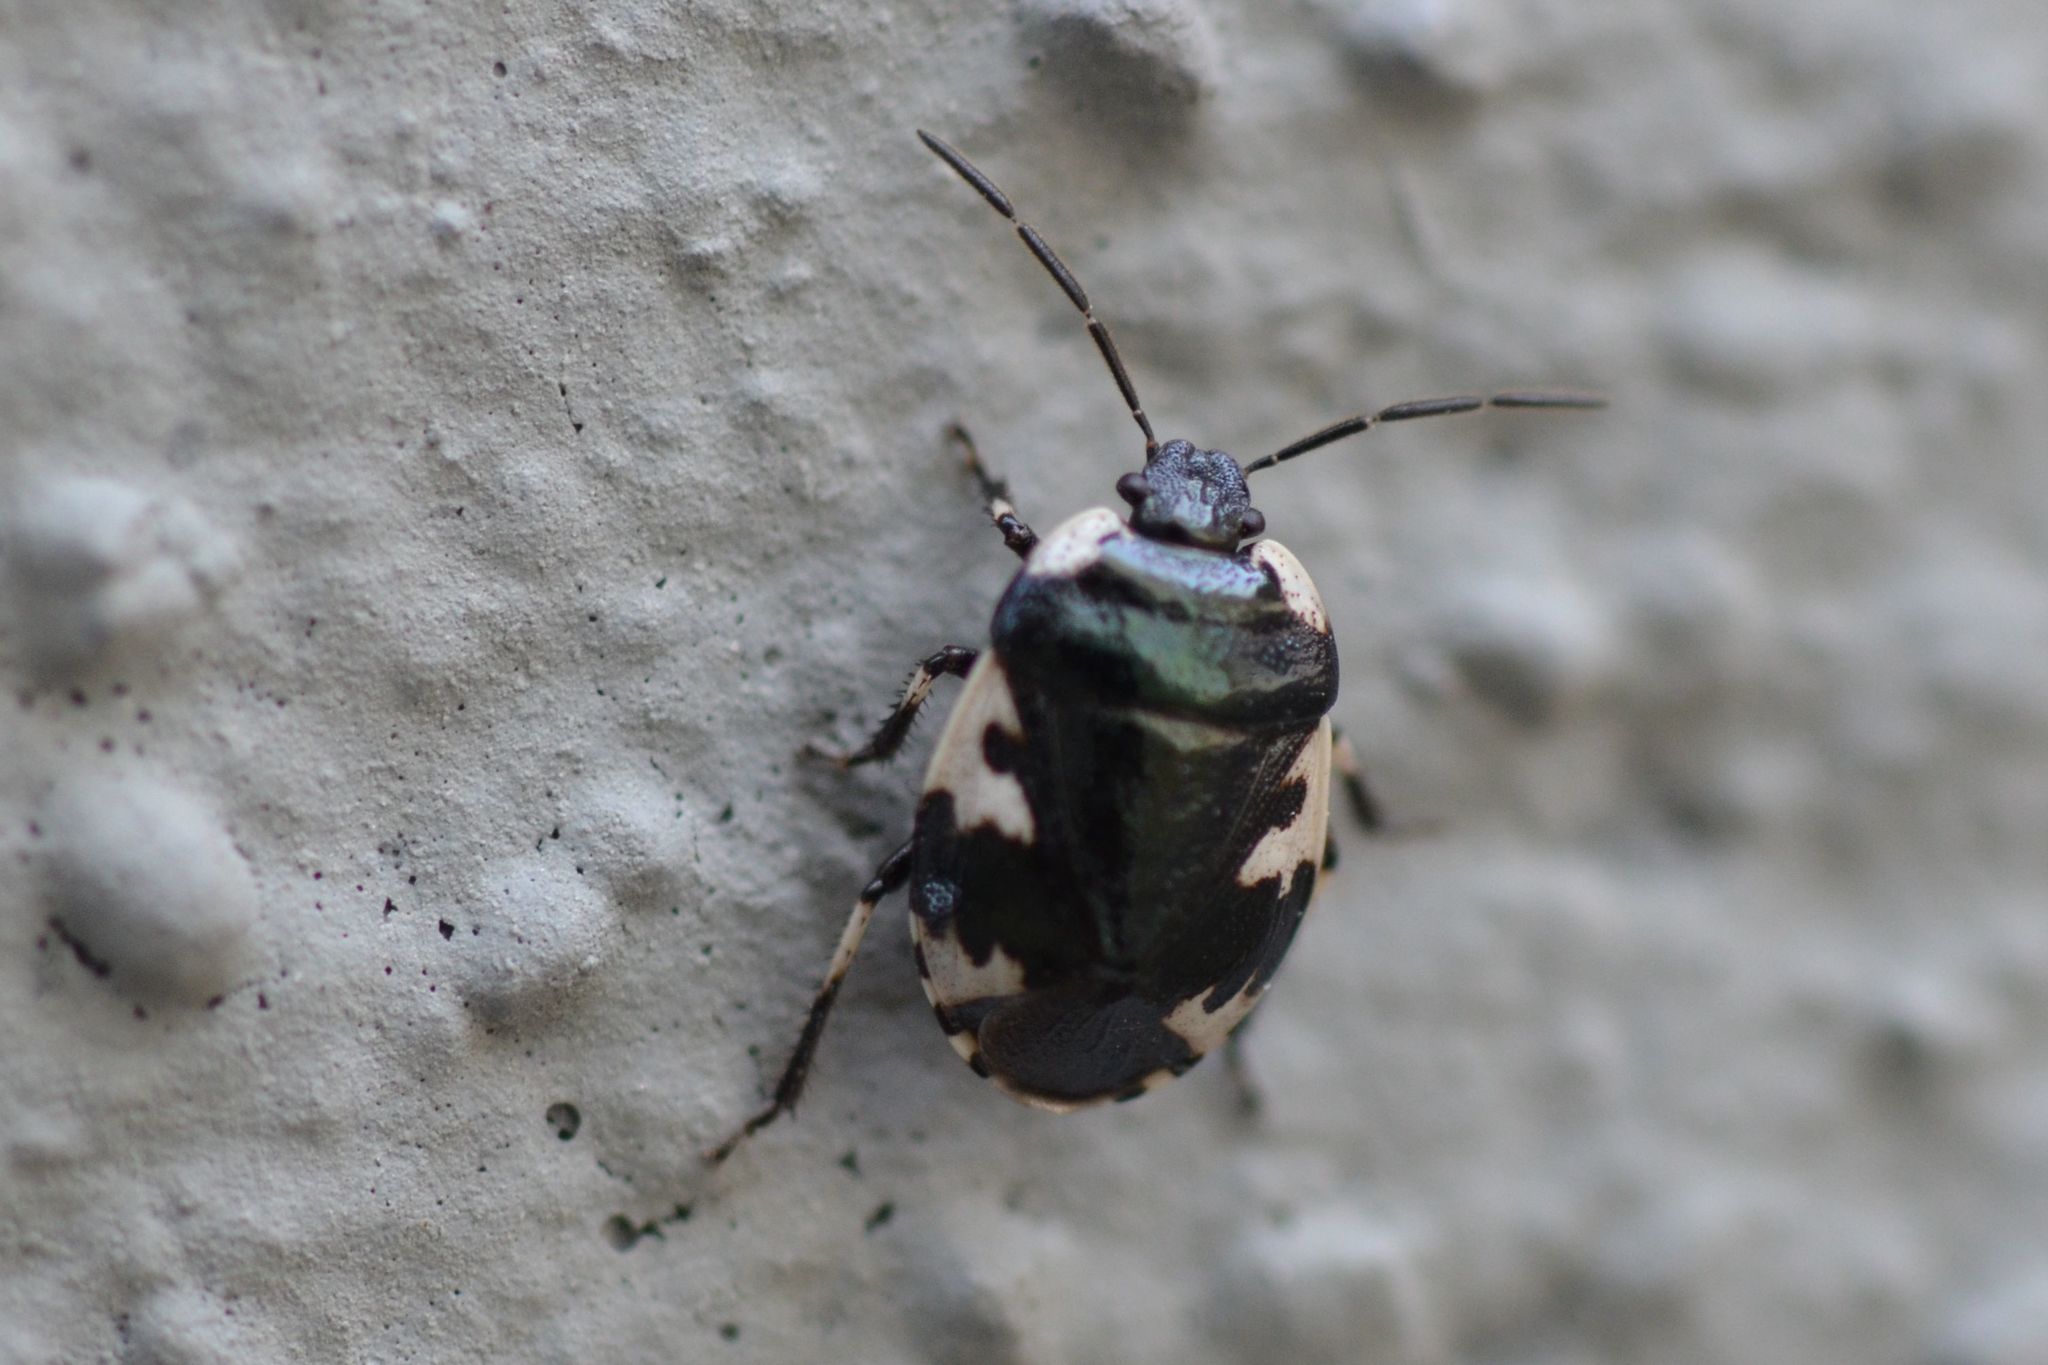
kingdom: Animalia
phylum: Arthropoda
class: Insecta
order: Hemiptera
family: Cydnidae
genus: Tritomegas
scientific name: Tritomegas rotundipennis
